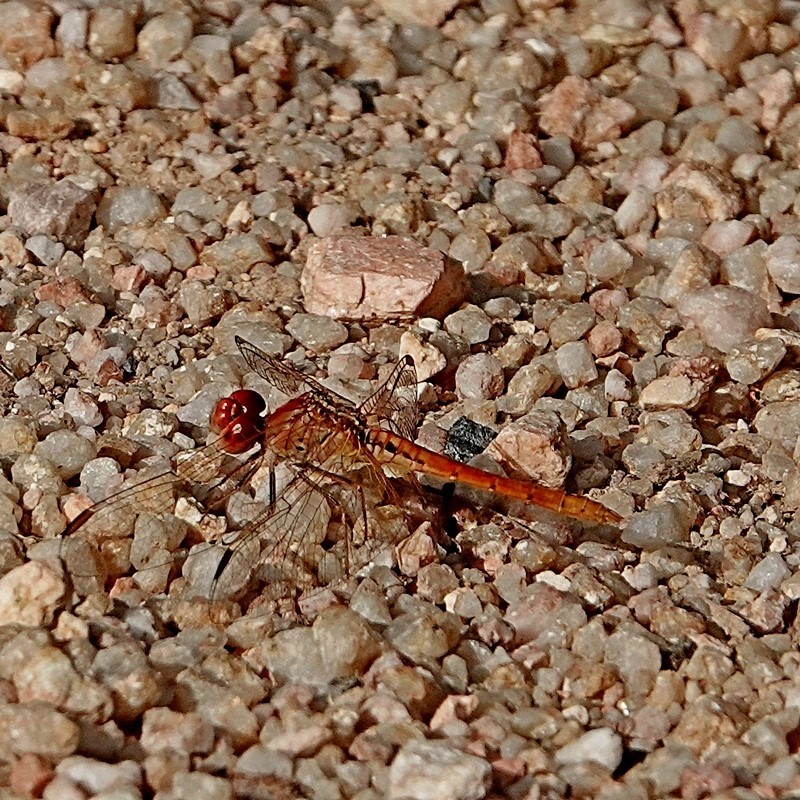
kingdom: Animalia
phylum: Arthropoda
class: Insecta
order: Odonata
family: Libellulidae
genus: Diplacodes
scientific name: Diplacodes haematodes
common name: Scarlet percher
